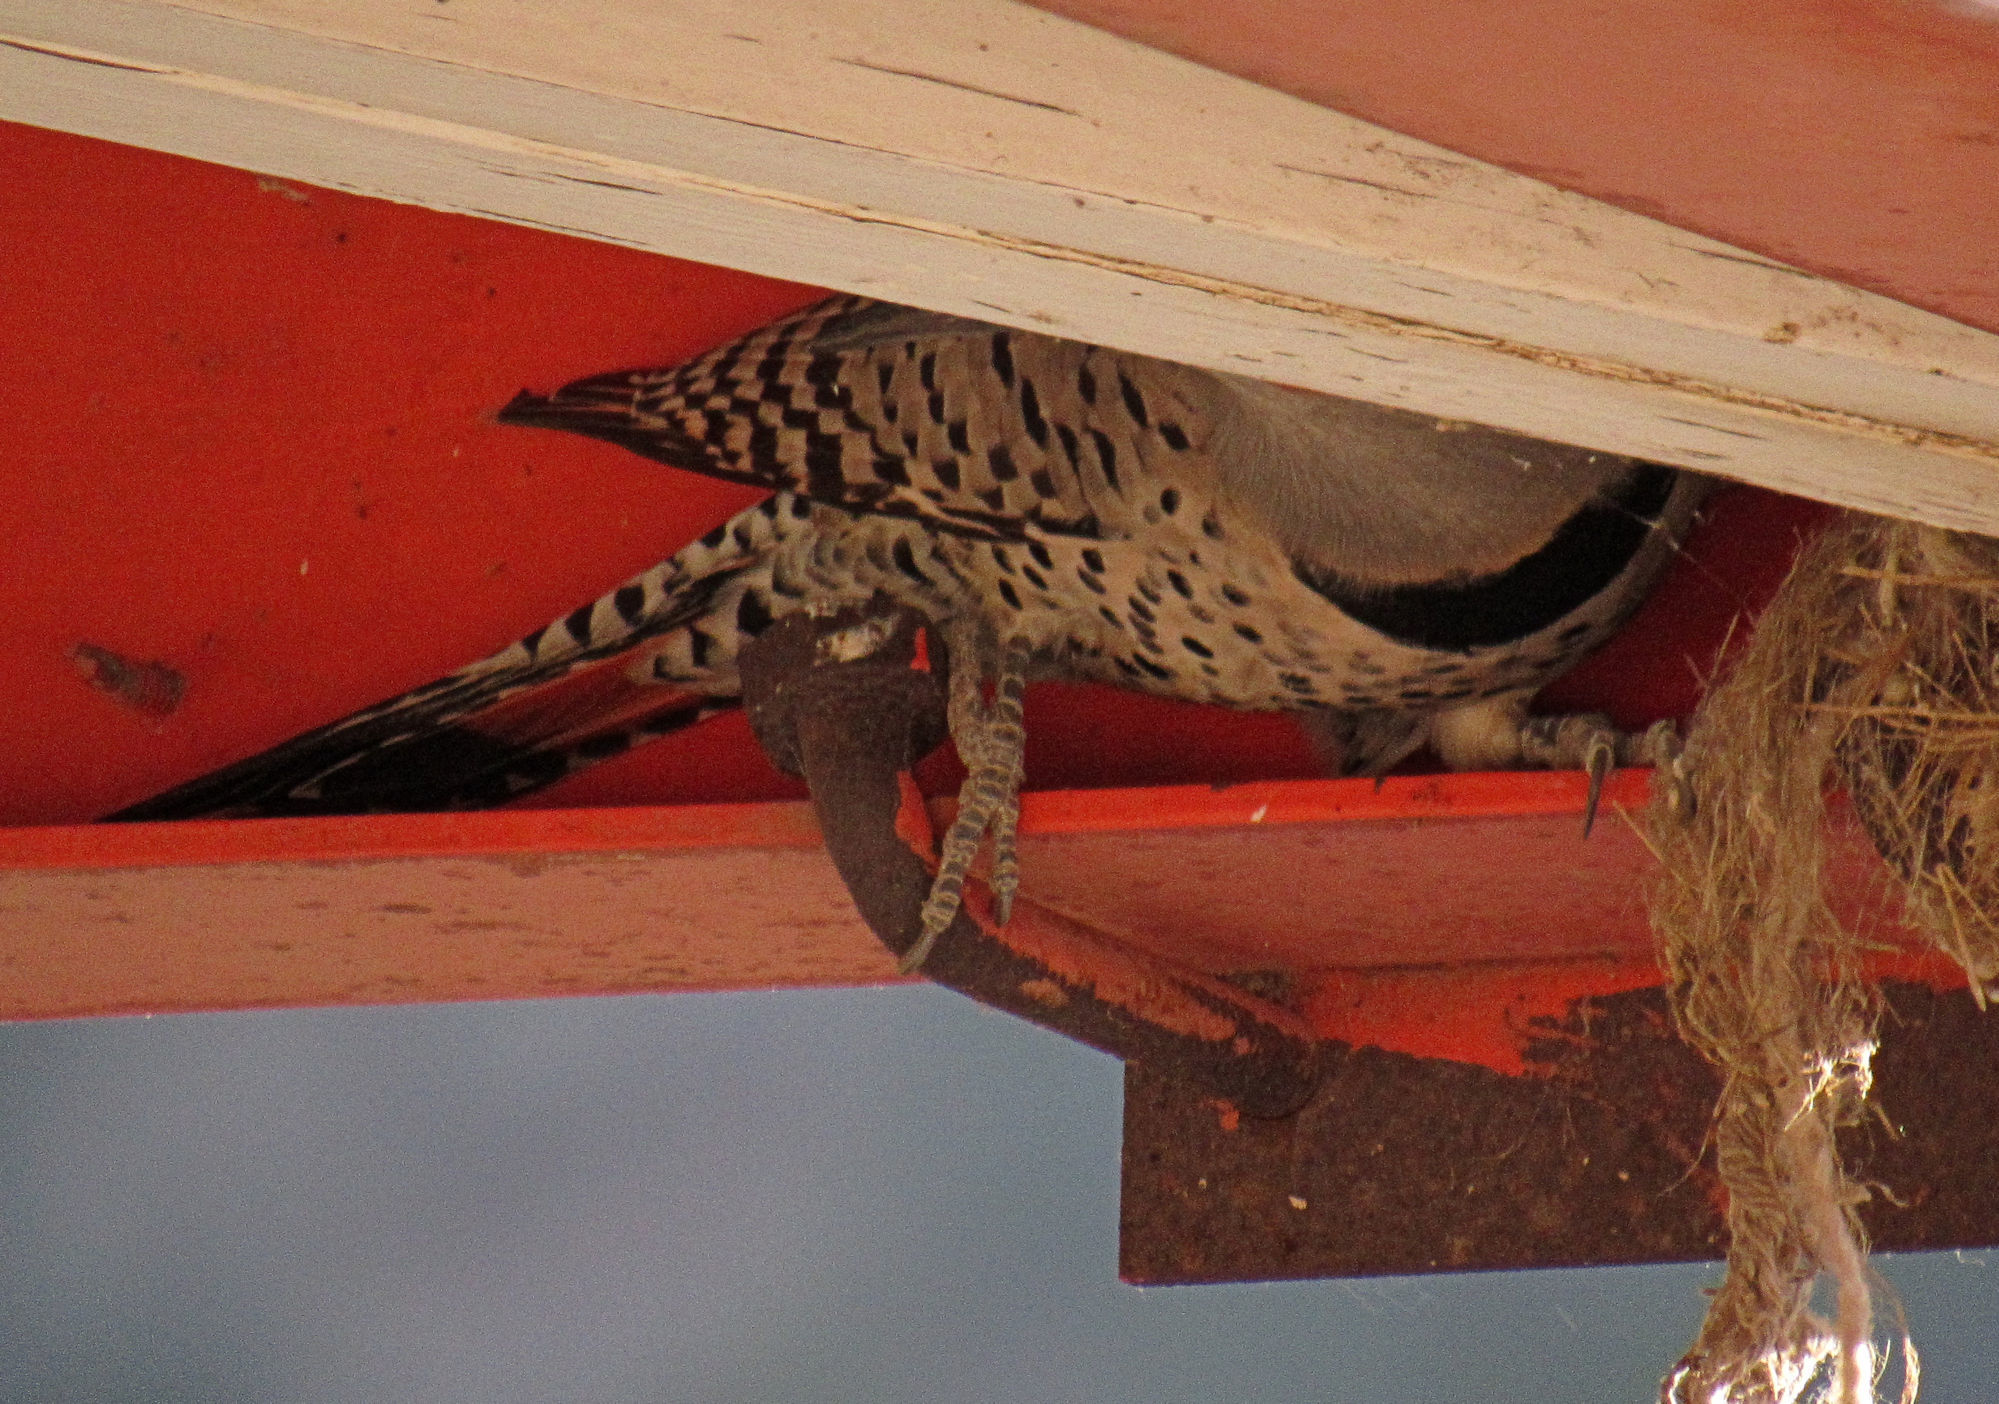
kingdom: Animalia
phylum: Chordata
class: Aves
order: Piciformes
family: Picidae
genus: Colaptes
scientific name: Colaptes auratus
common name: Northern flicker
